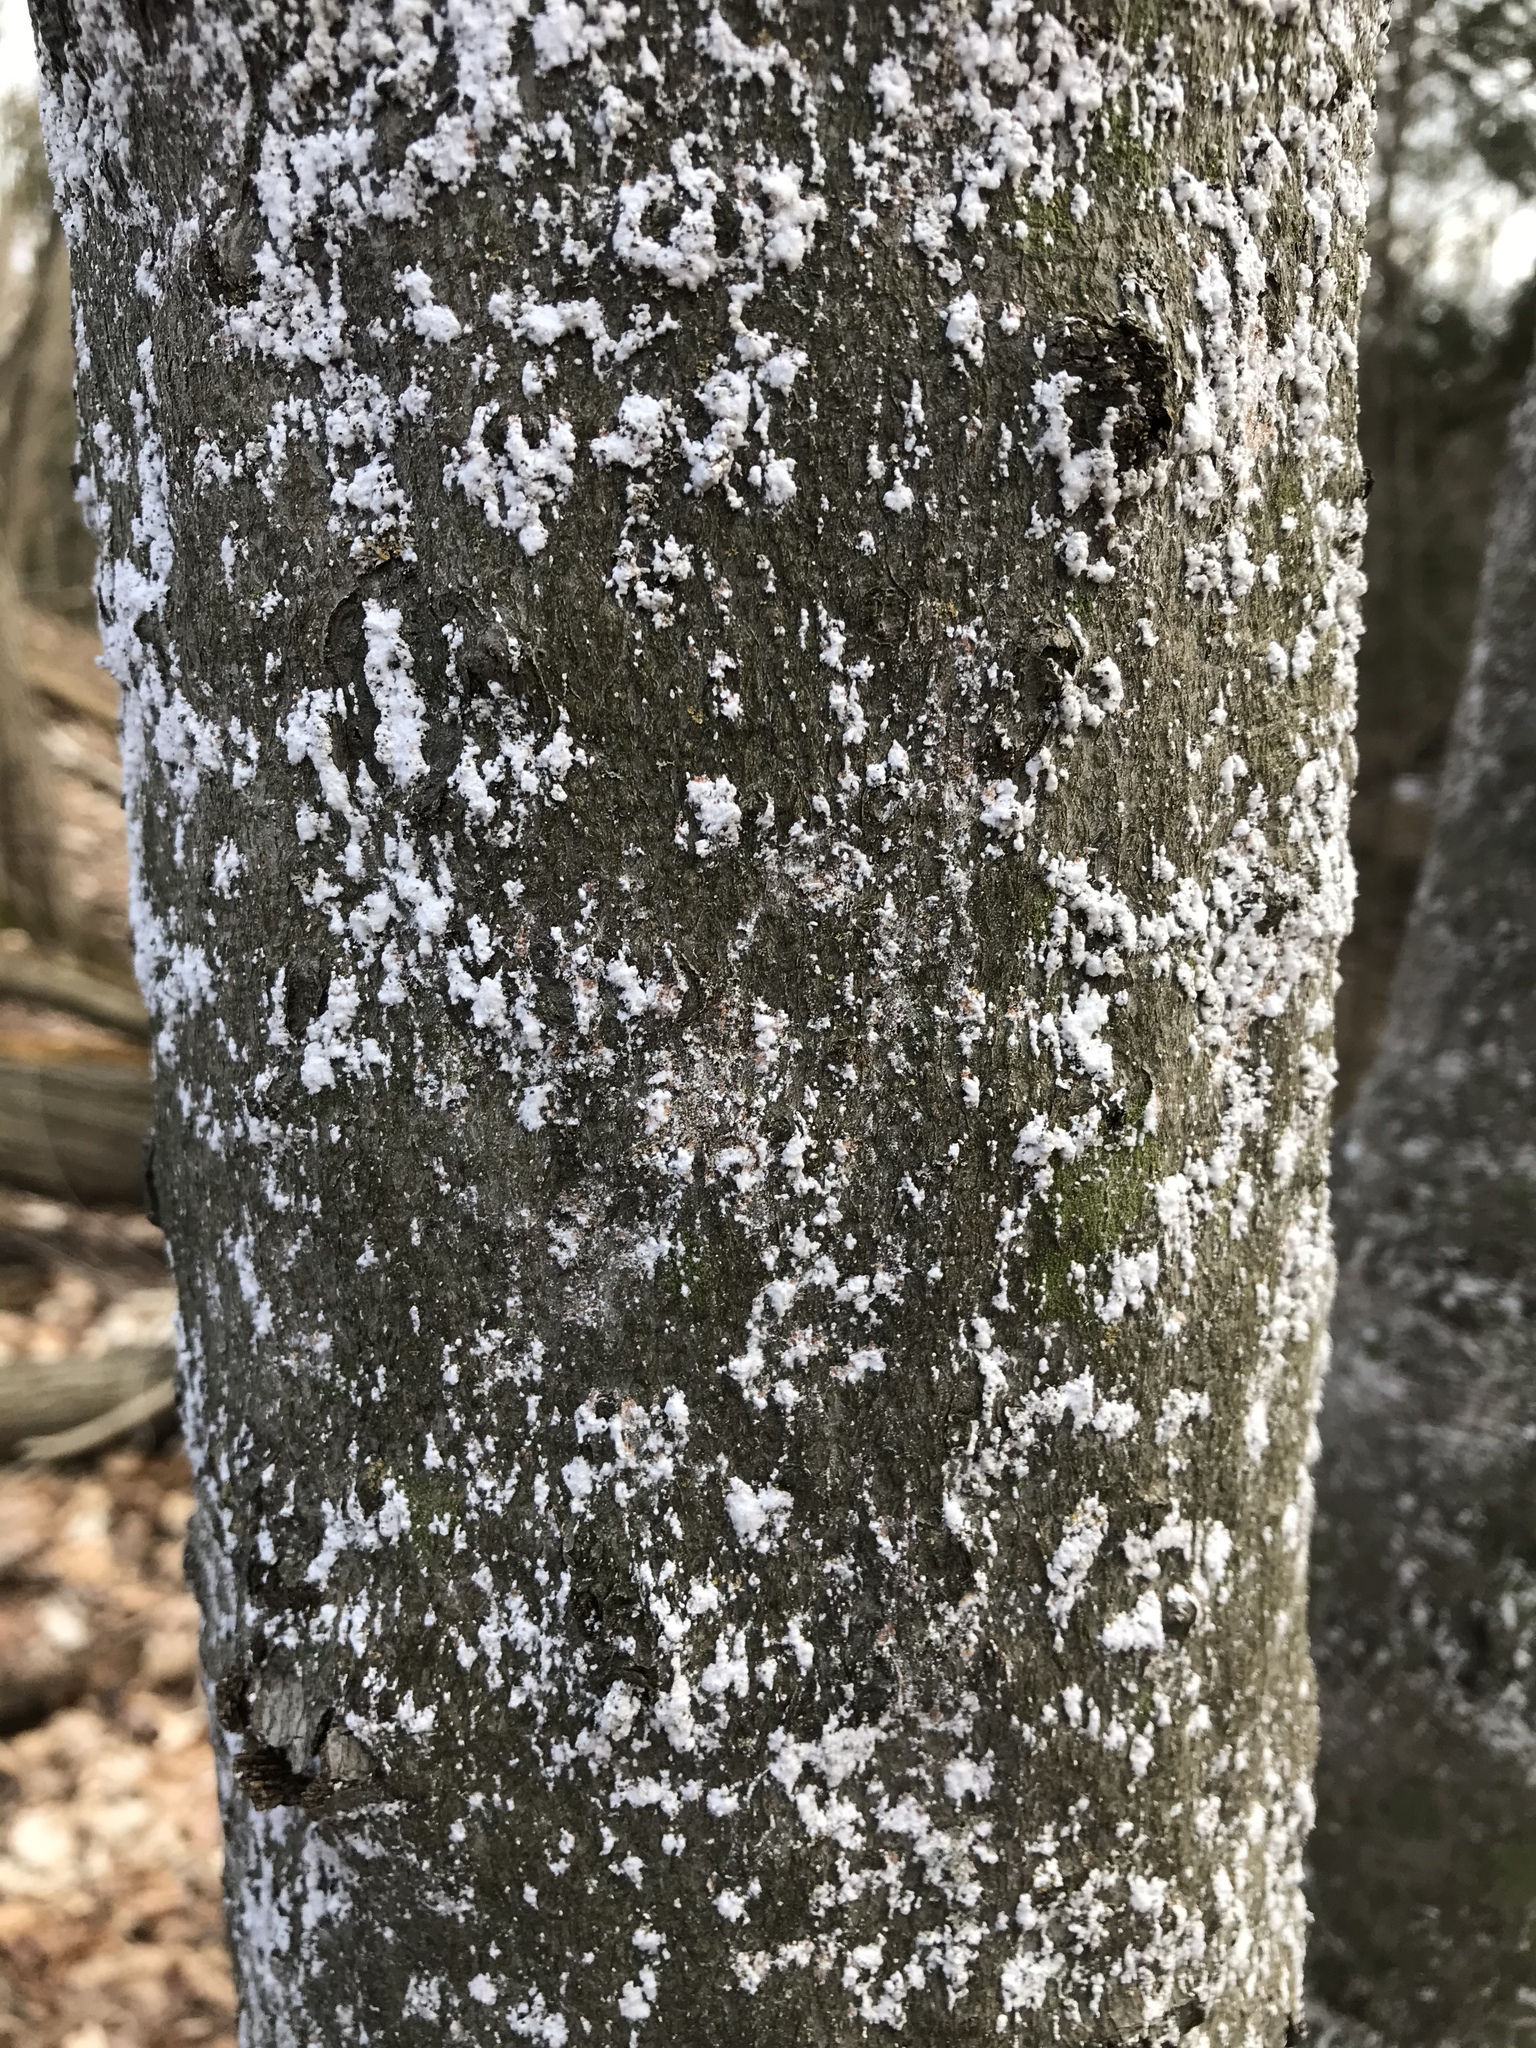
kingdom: Animalia
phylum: Arthropoda
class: Insecta
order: Hemiptera
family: Eriococcidae
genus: Cryptococcus
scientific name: Cryptococcus fagisuga
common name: Beech scale
